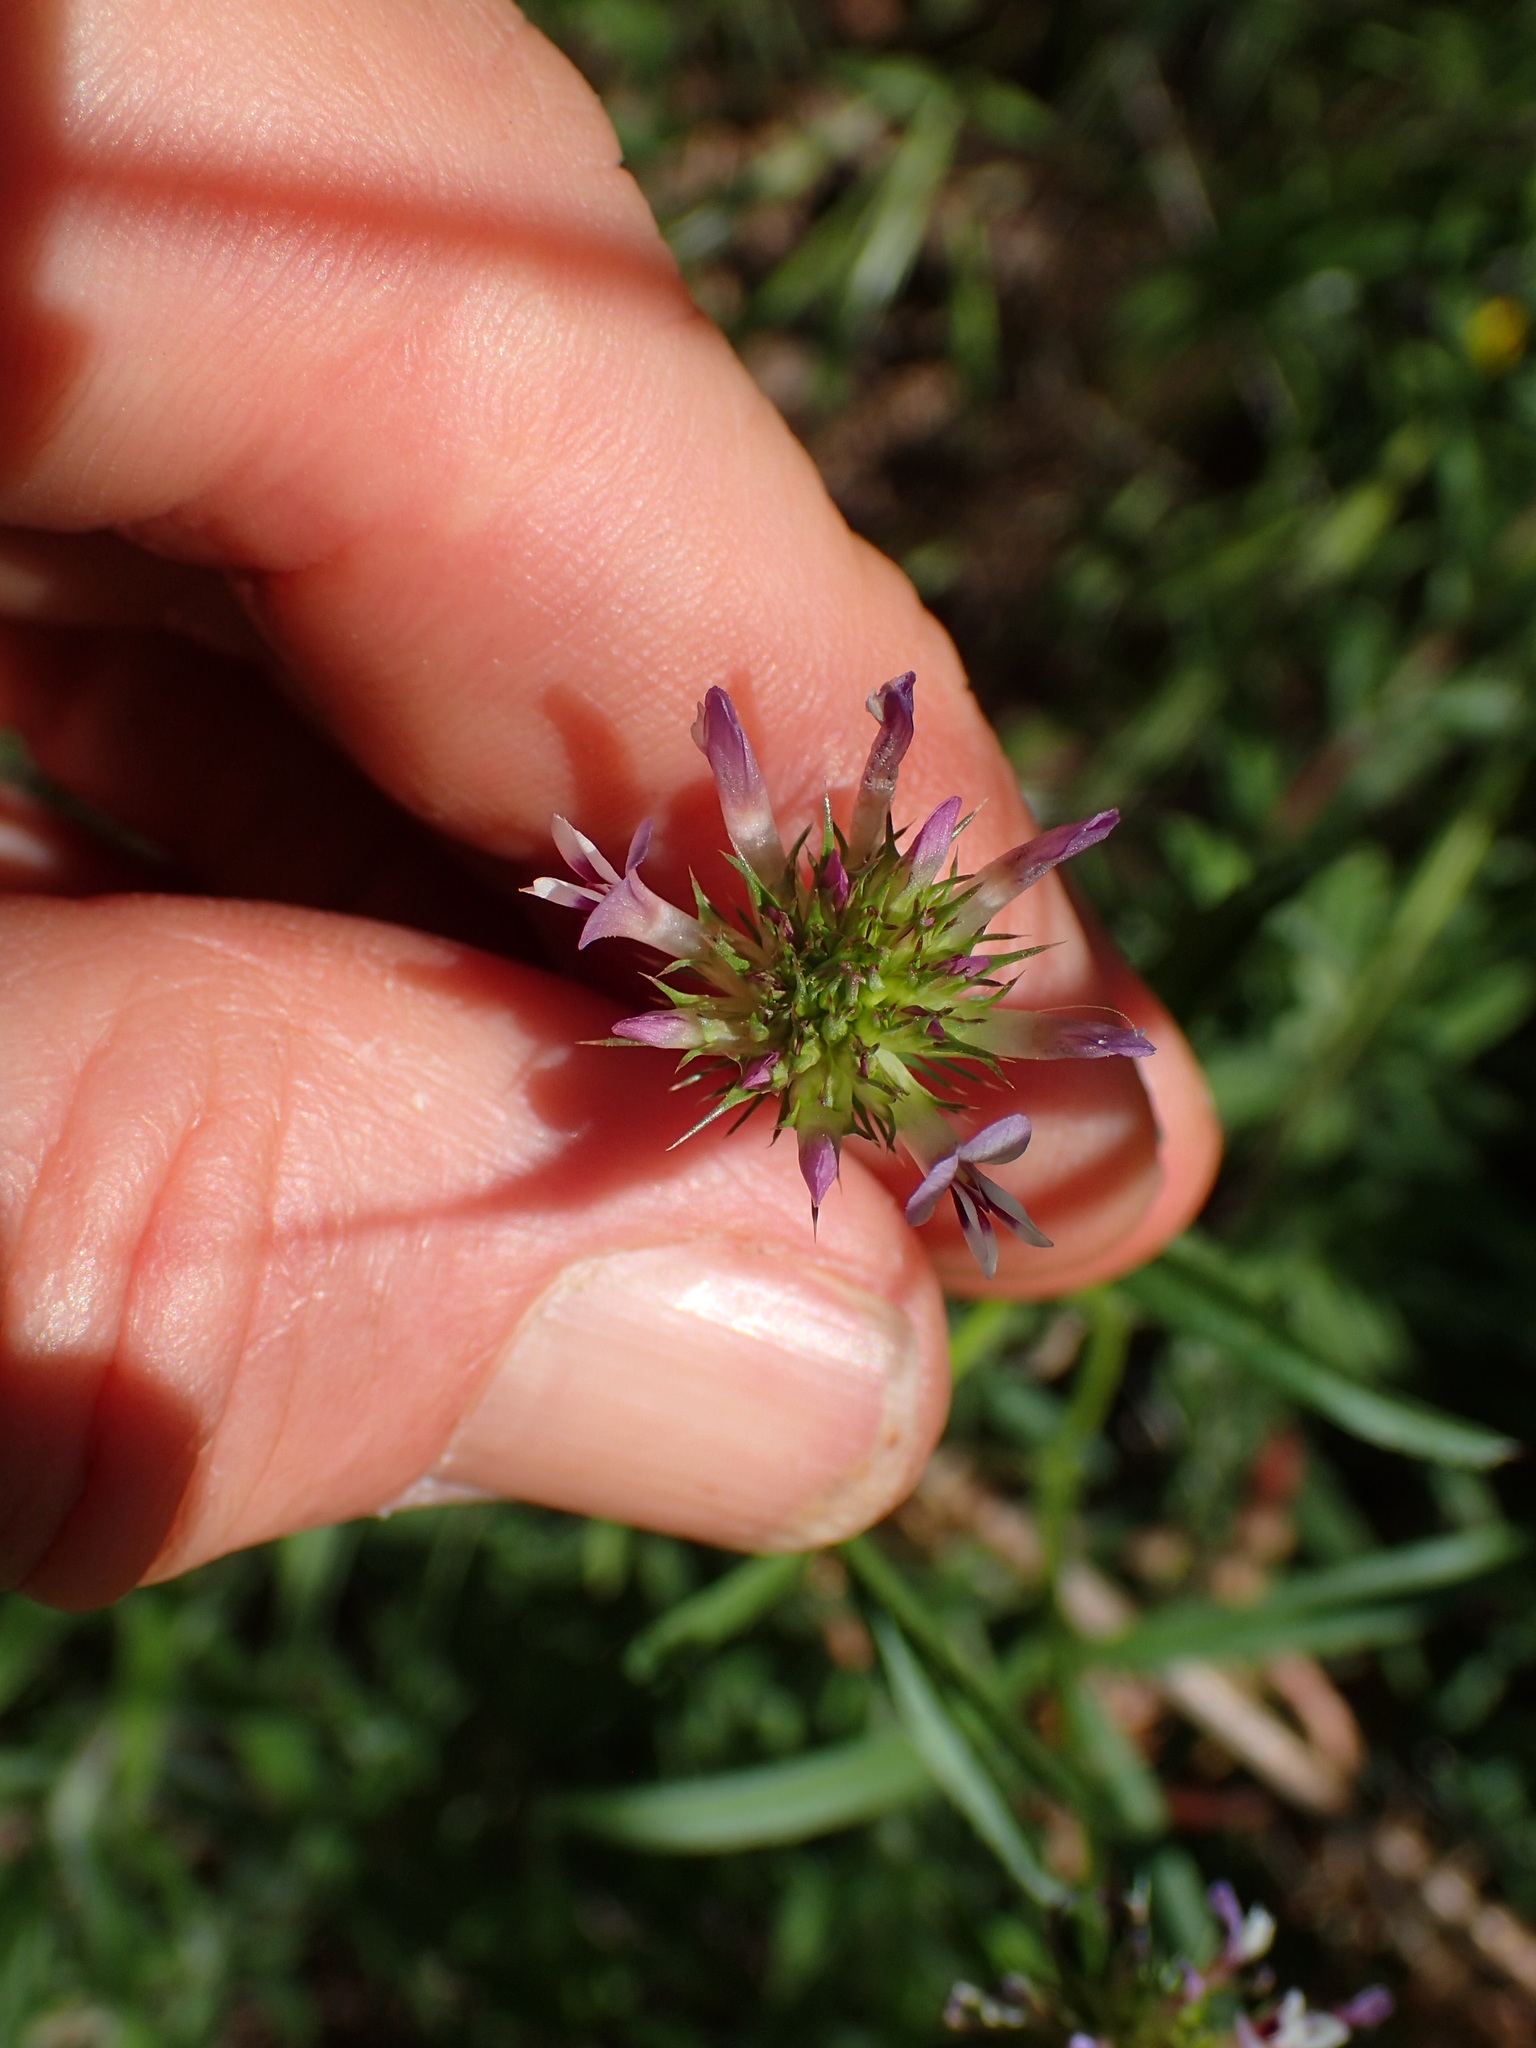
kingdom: Plantae
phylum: Tracheophyta
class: Magnoliopsida
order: Fabales
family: Fabaceae
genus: Trifolium
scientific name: Trifolium willdenovii
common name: Tomcat clover
